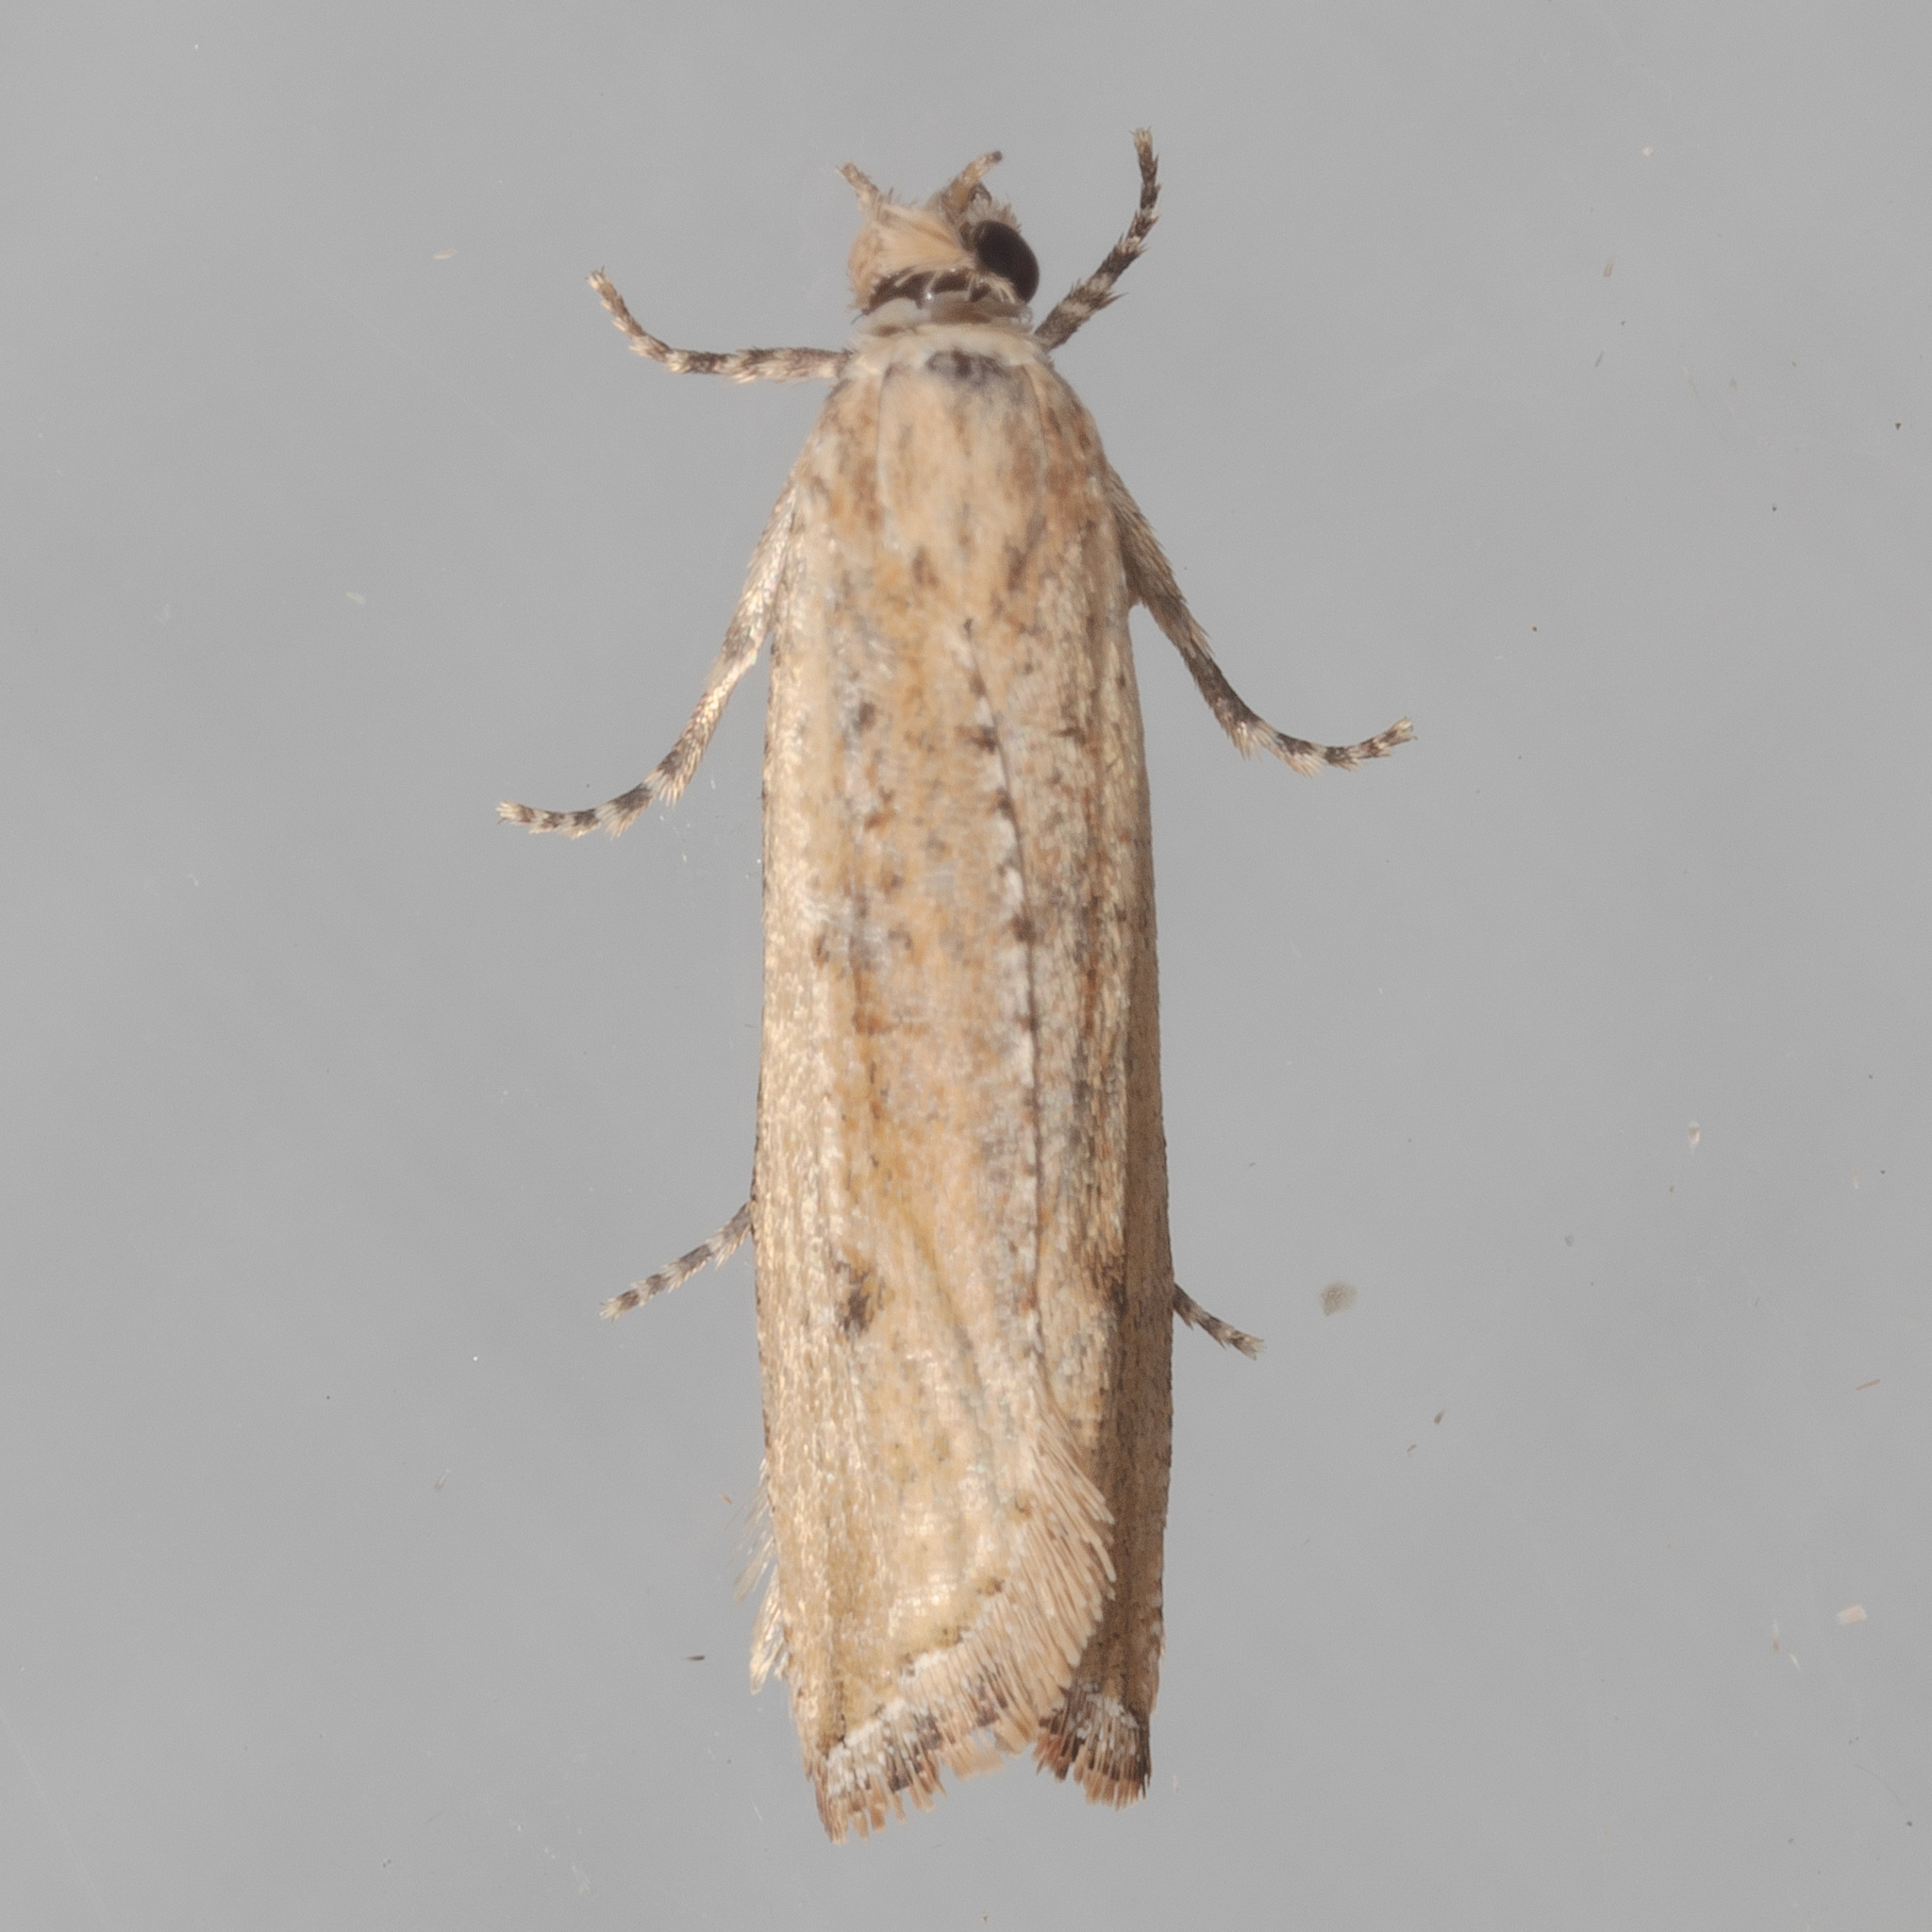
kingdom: Animalia
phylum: Arthropoda
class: Insecta
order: Lepidoptera
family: Tortricidae
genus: Bactra
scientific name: Bactra verutana
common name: Javelin moth
